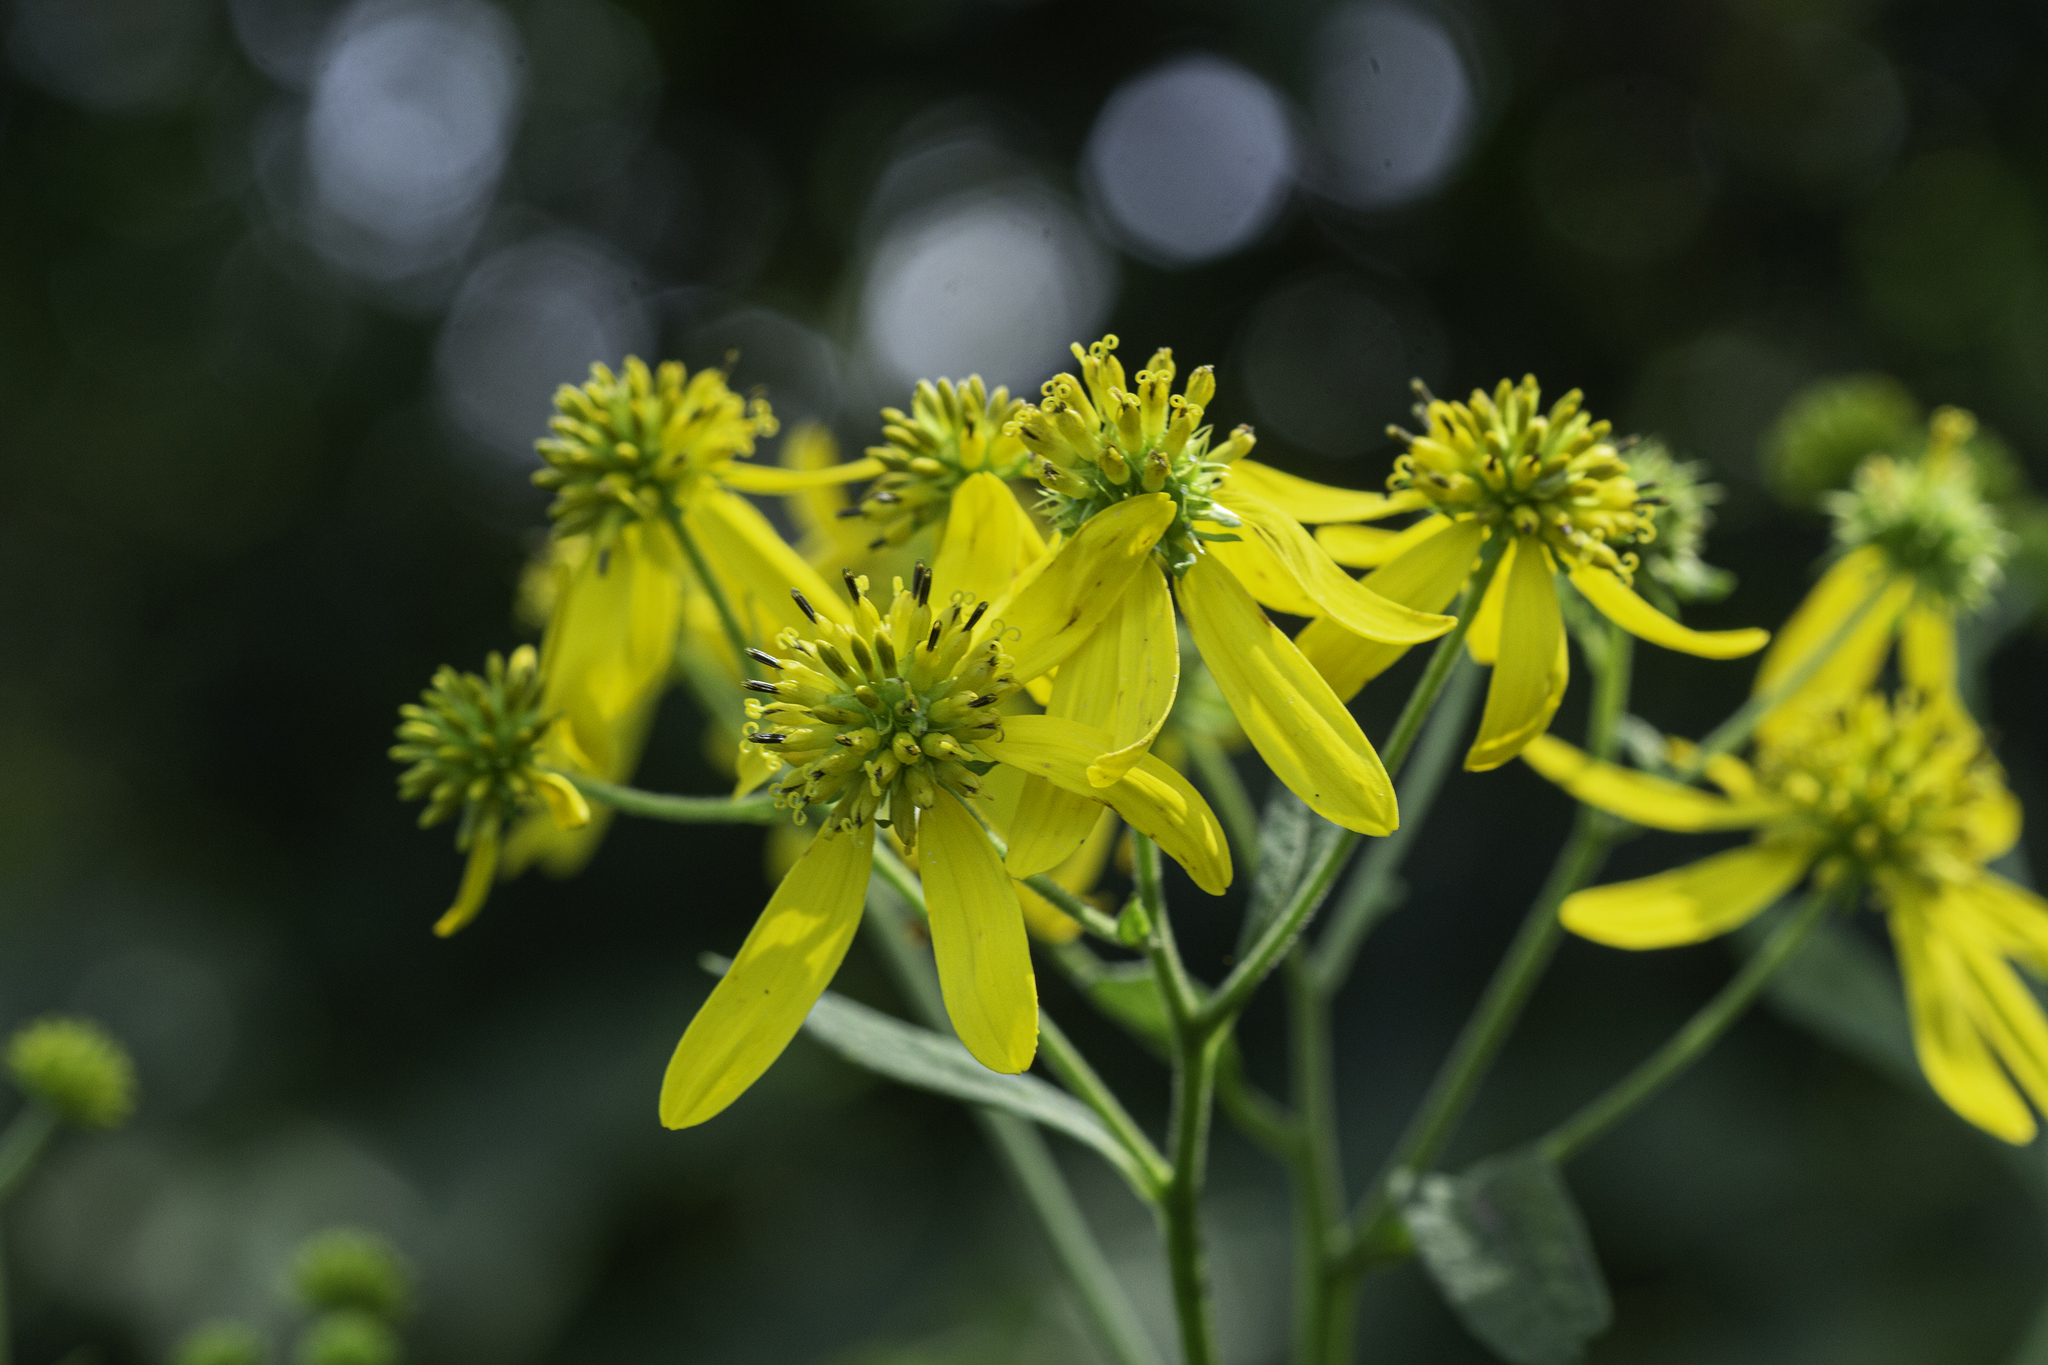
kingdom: Plantae
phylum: Tracheophyta
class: Magnoliopsida
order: Asterales
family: Asteraceae
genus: Verbesina
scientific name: Verbesina alternifolia
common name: Wingstem
